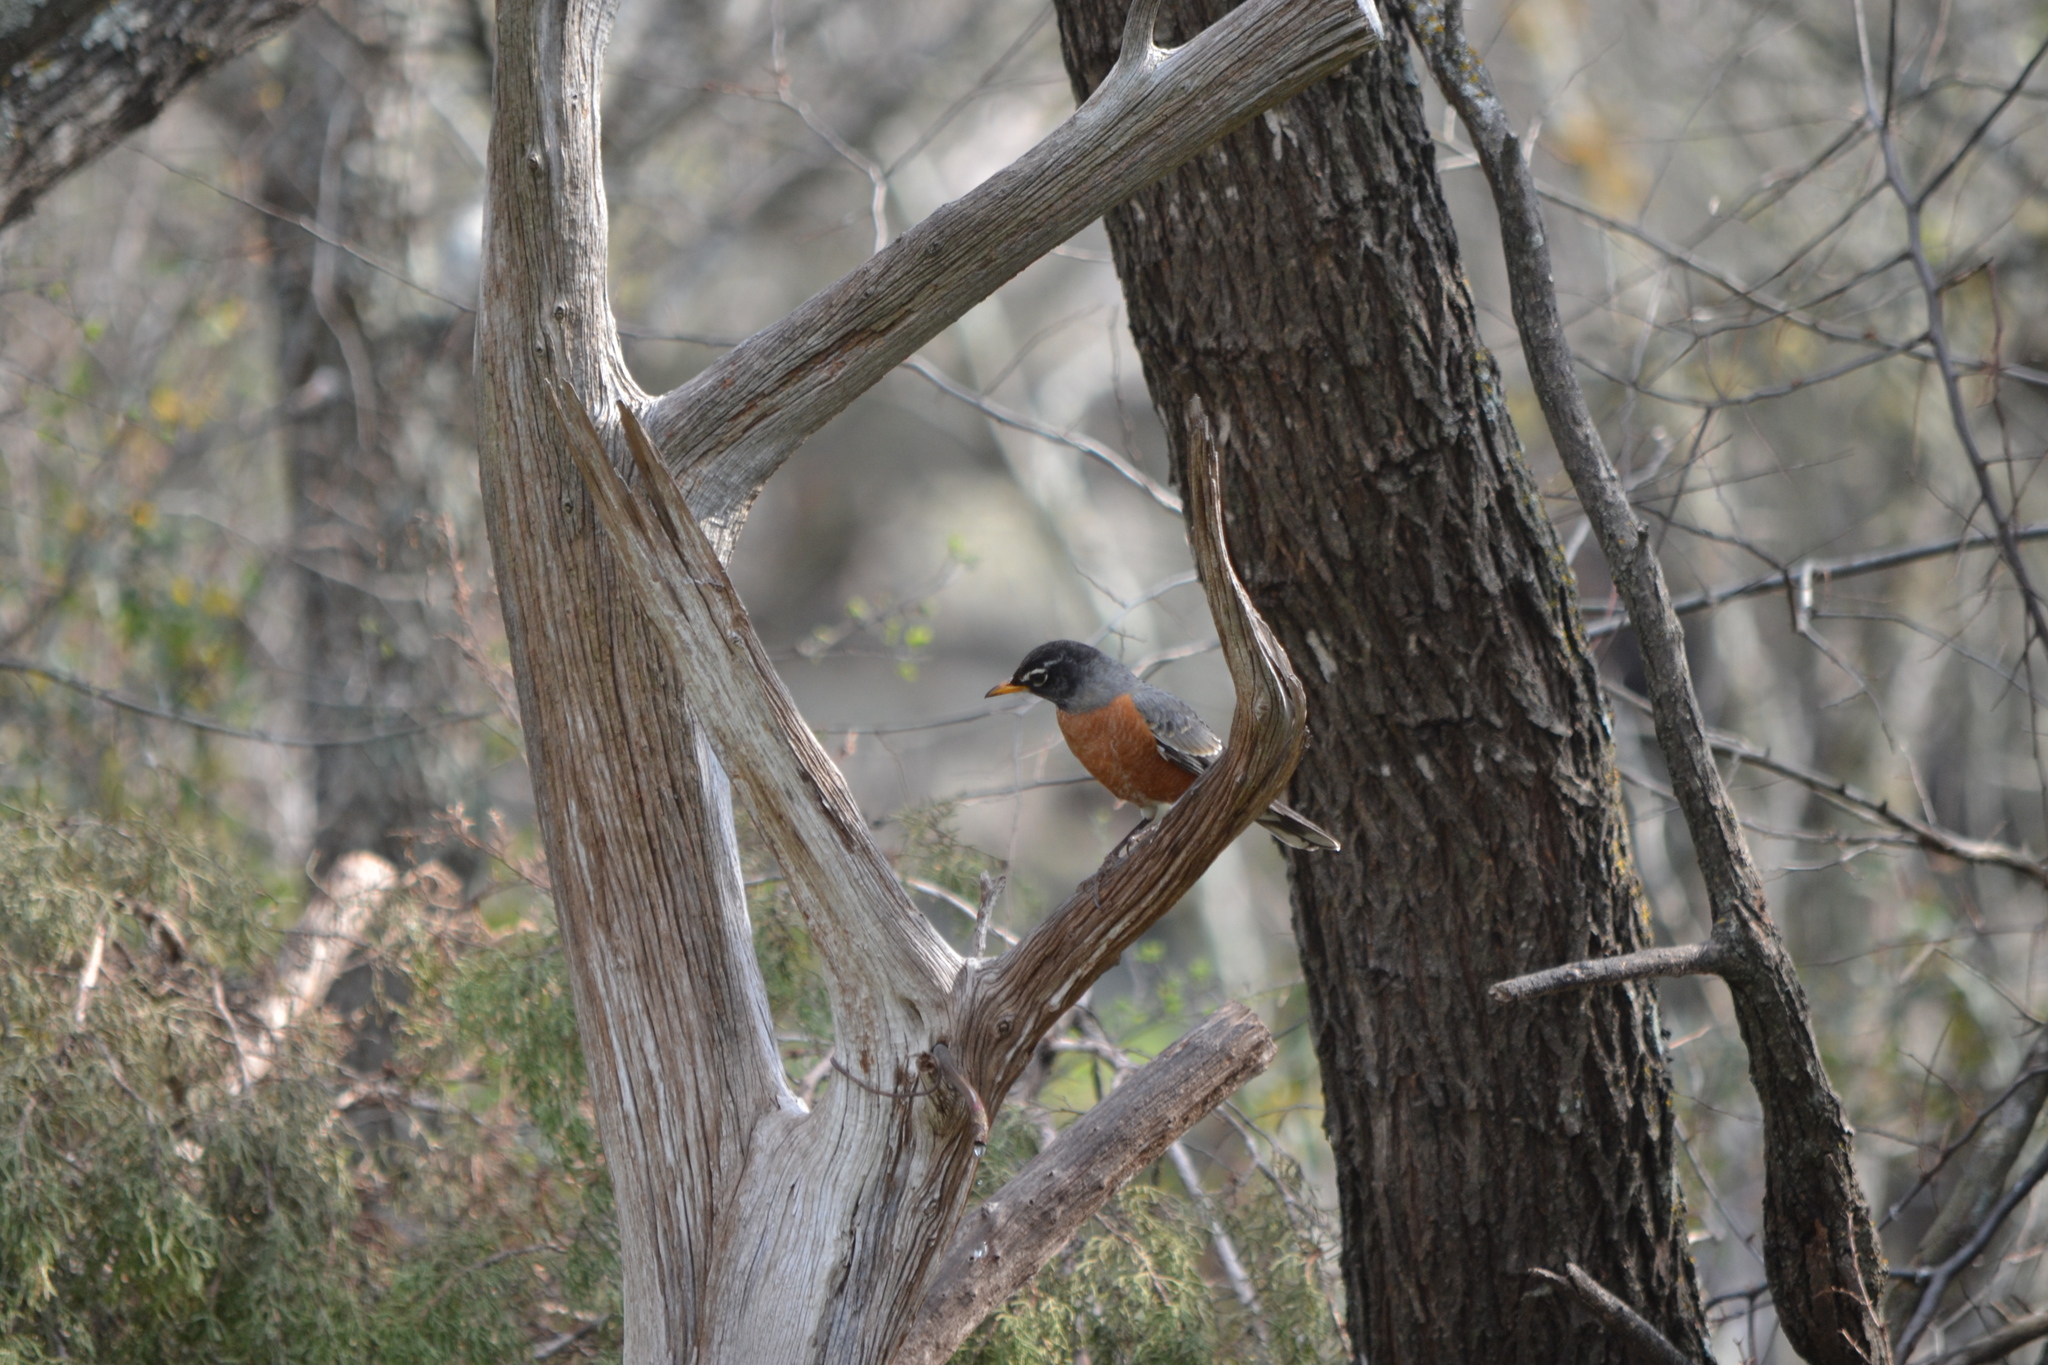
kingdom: Animalia
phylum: Chordata
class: Aves
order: Passeriformes
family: Turdidae
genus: Turdus
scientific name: Turdus migratorius
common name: American robin
